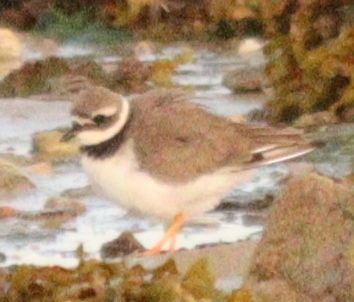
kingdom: Animalia
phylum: Chordata
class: Aves
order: Charadriiformes
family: Charadriidae
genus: Charadrius
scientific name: Charadrius hiaticula
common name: Common ringed plover
